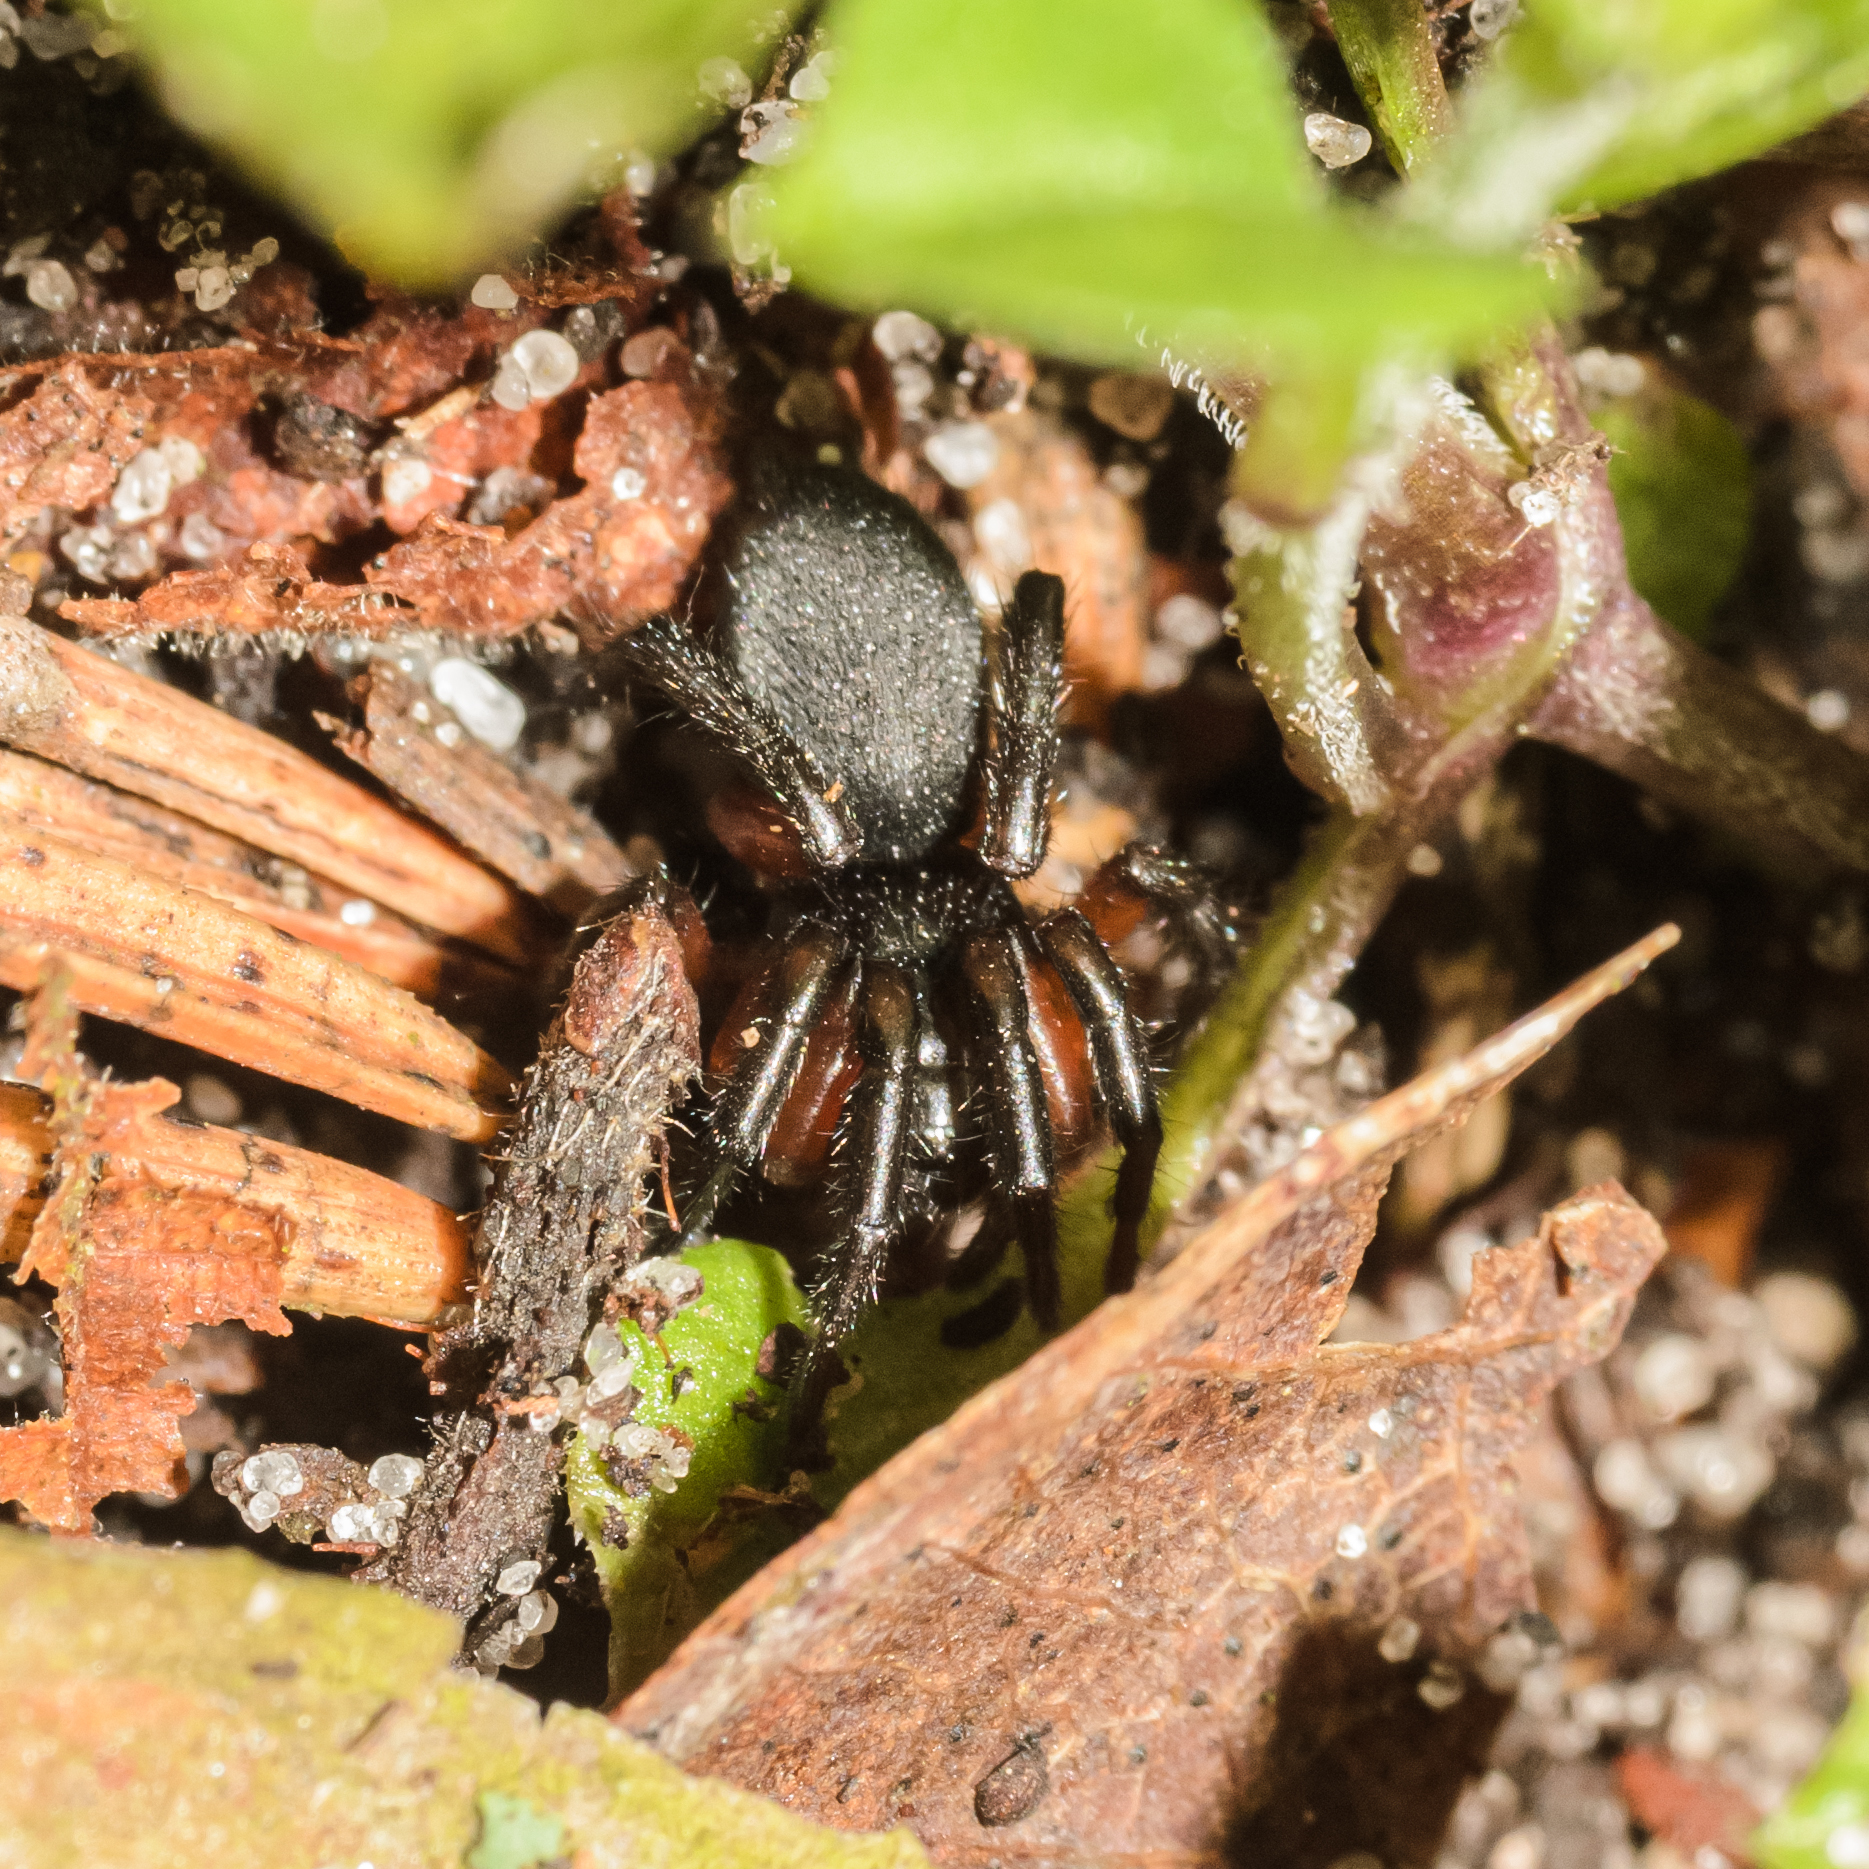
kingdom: Animalia
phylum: Arthropoda
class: Arachnida
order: Araneae
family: Gnaphosidae
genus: Gnaphosa
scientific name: Gnaphosa bicolor
